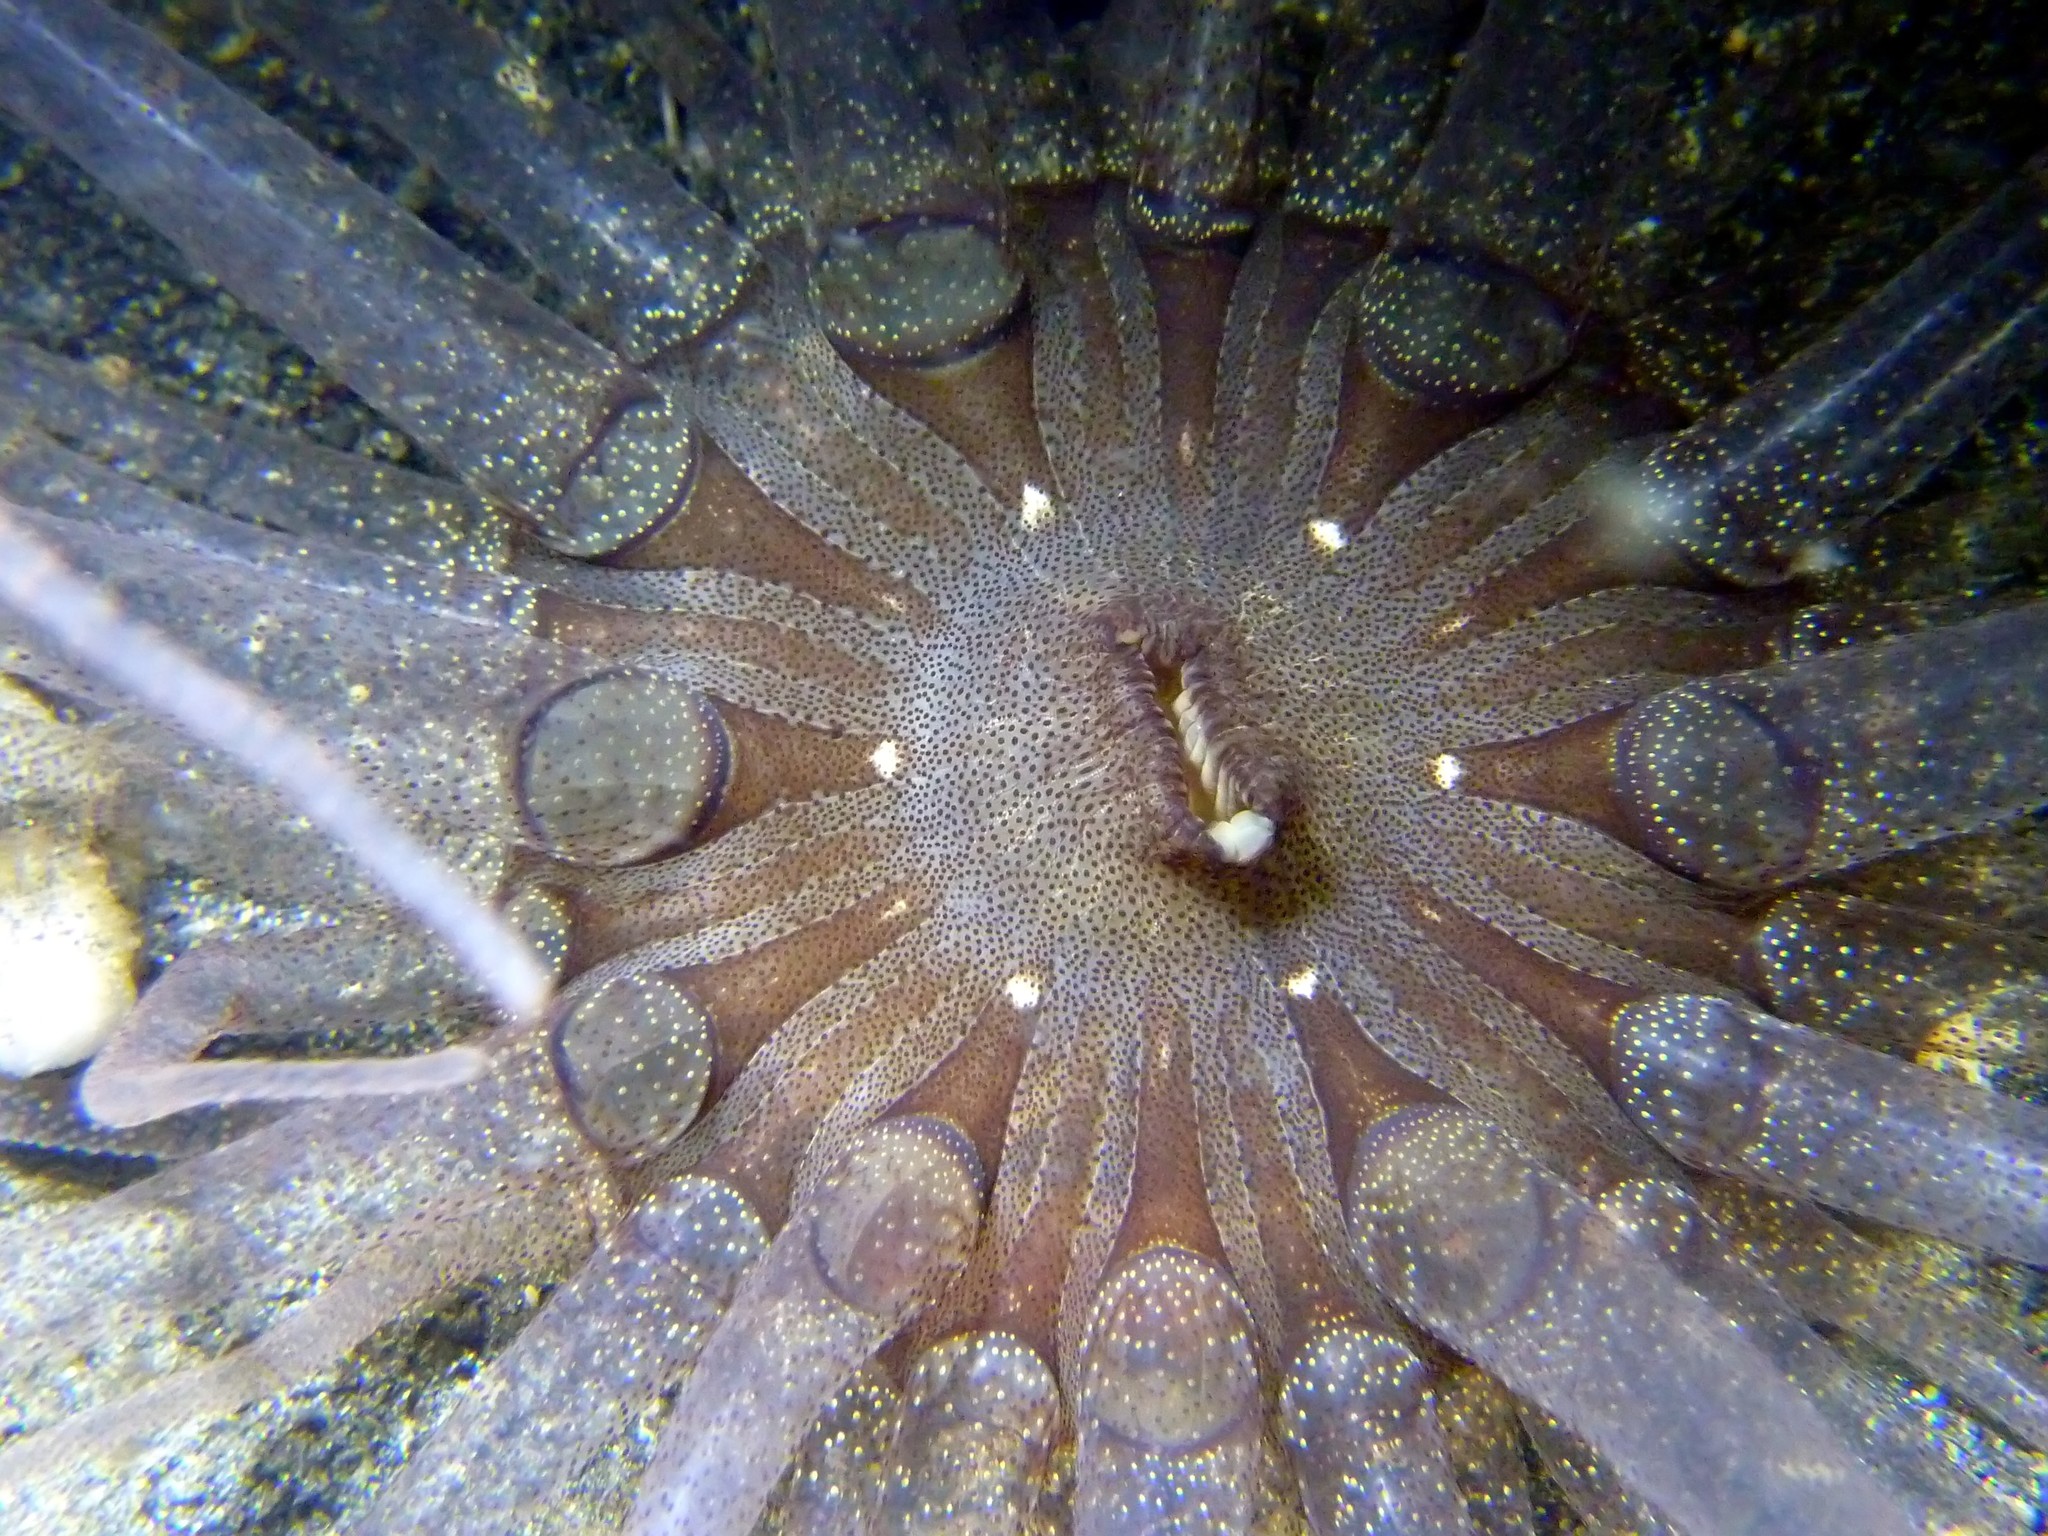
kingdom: Animalia
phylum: Cnidaria
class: Anthozoa
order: Actiniaria
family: Actiniidae
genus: Dofleinia
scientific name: Dofleinia armata
